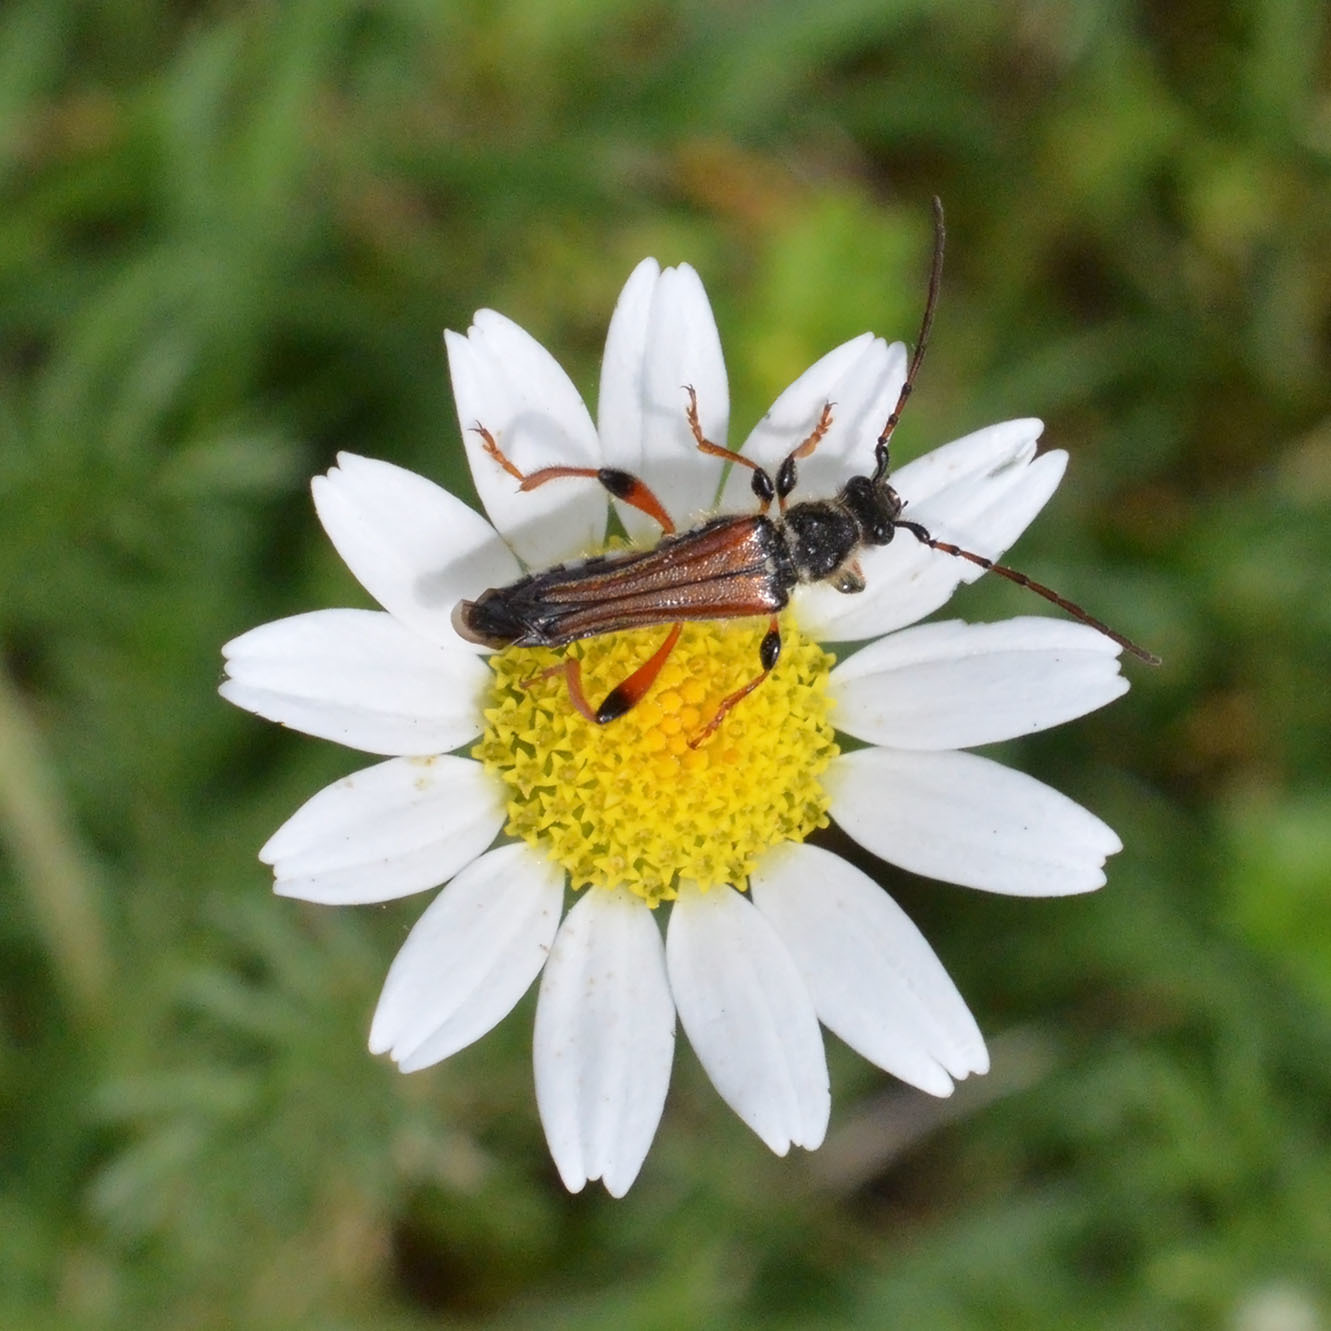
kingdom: Animalia
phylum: Arthropoda
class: Insecta
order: Coleoptera
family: Cerambycidae
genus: Stenopterus
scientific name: Stenopterus rufus
